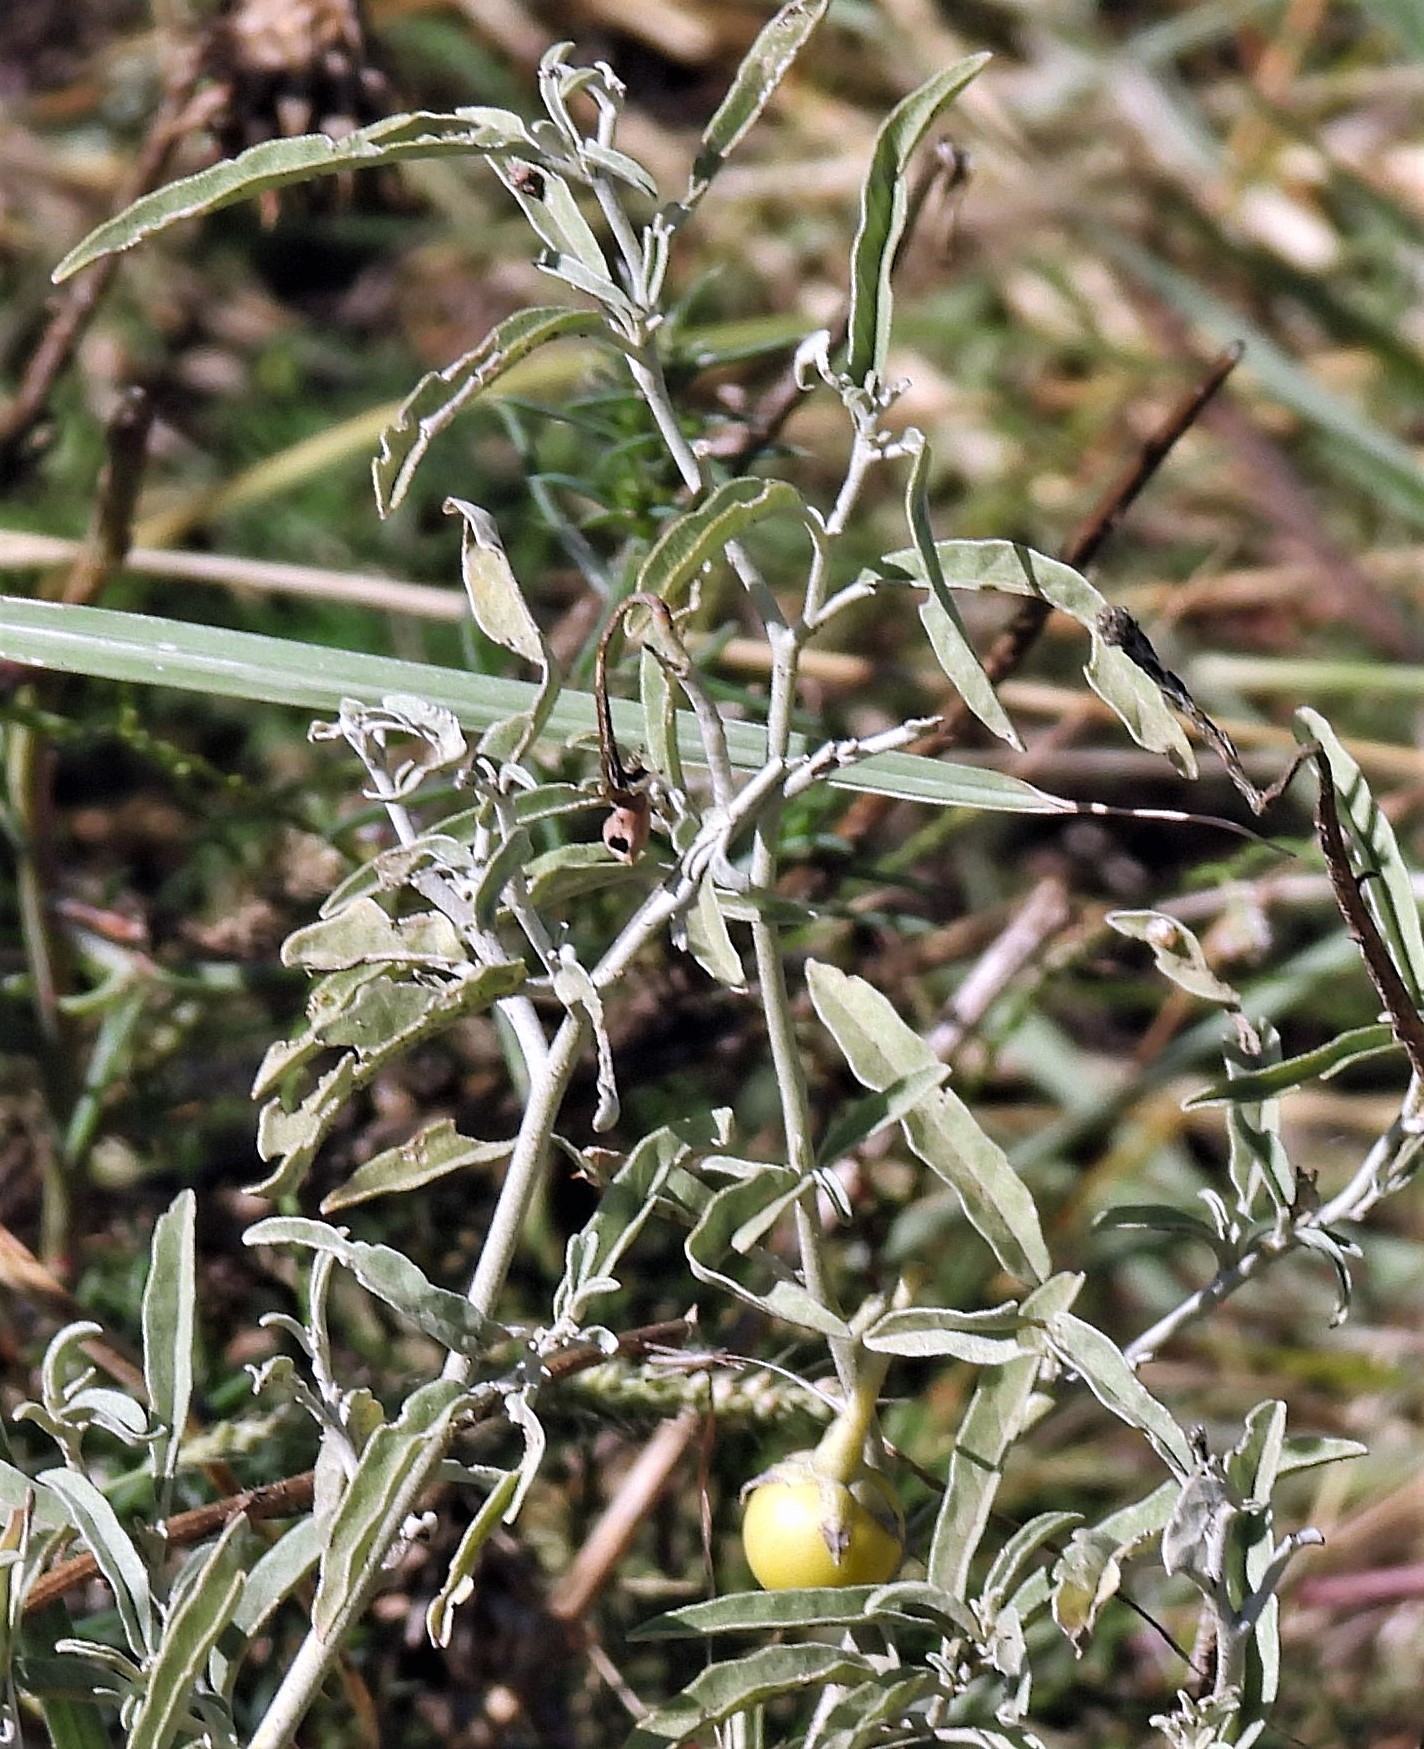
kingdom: Plantae
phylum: Tracheophyta
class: Magnoliopsida
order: Solanales
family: Solanaceae
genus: Solanum
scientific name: Solanum elaeagnifolium
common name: Silverleaf nightshade
